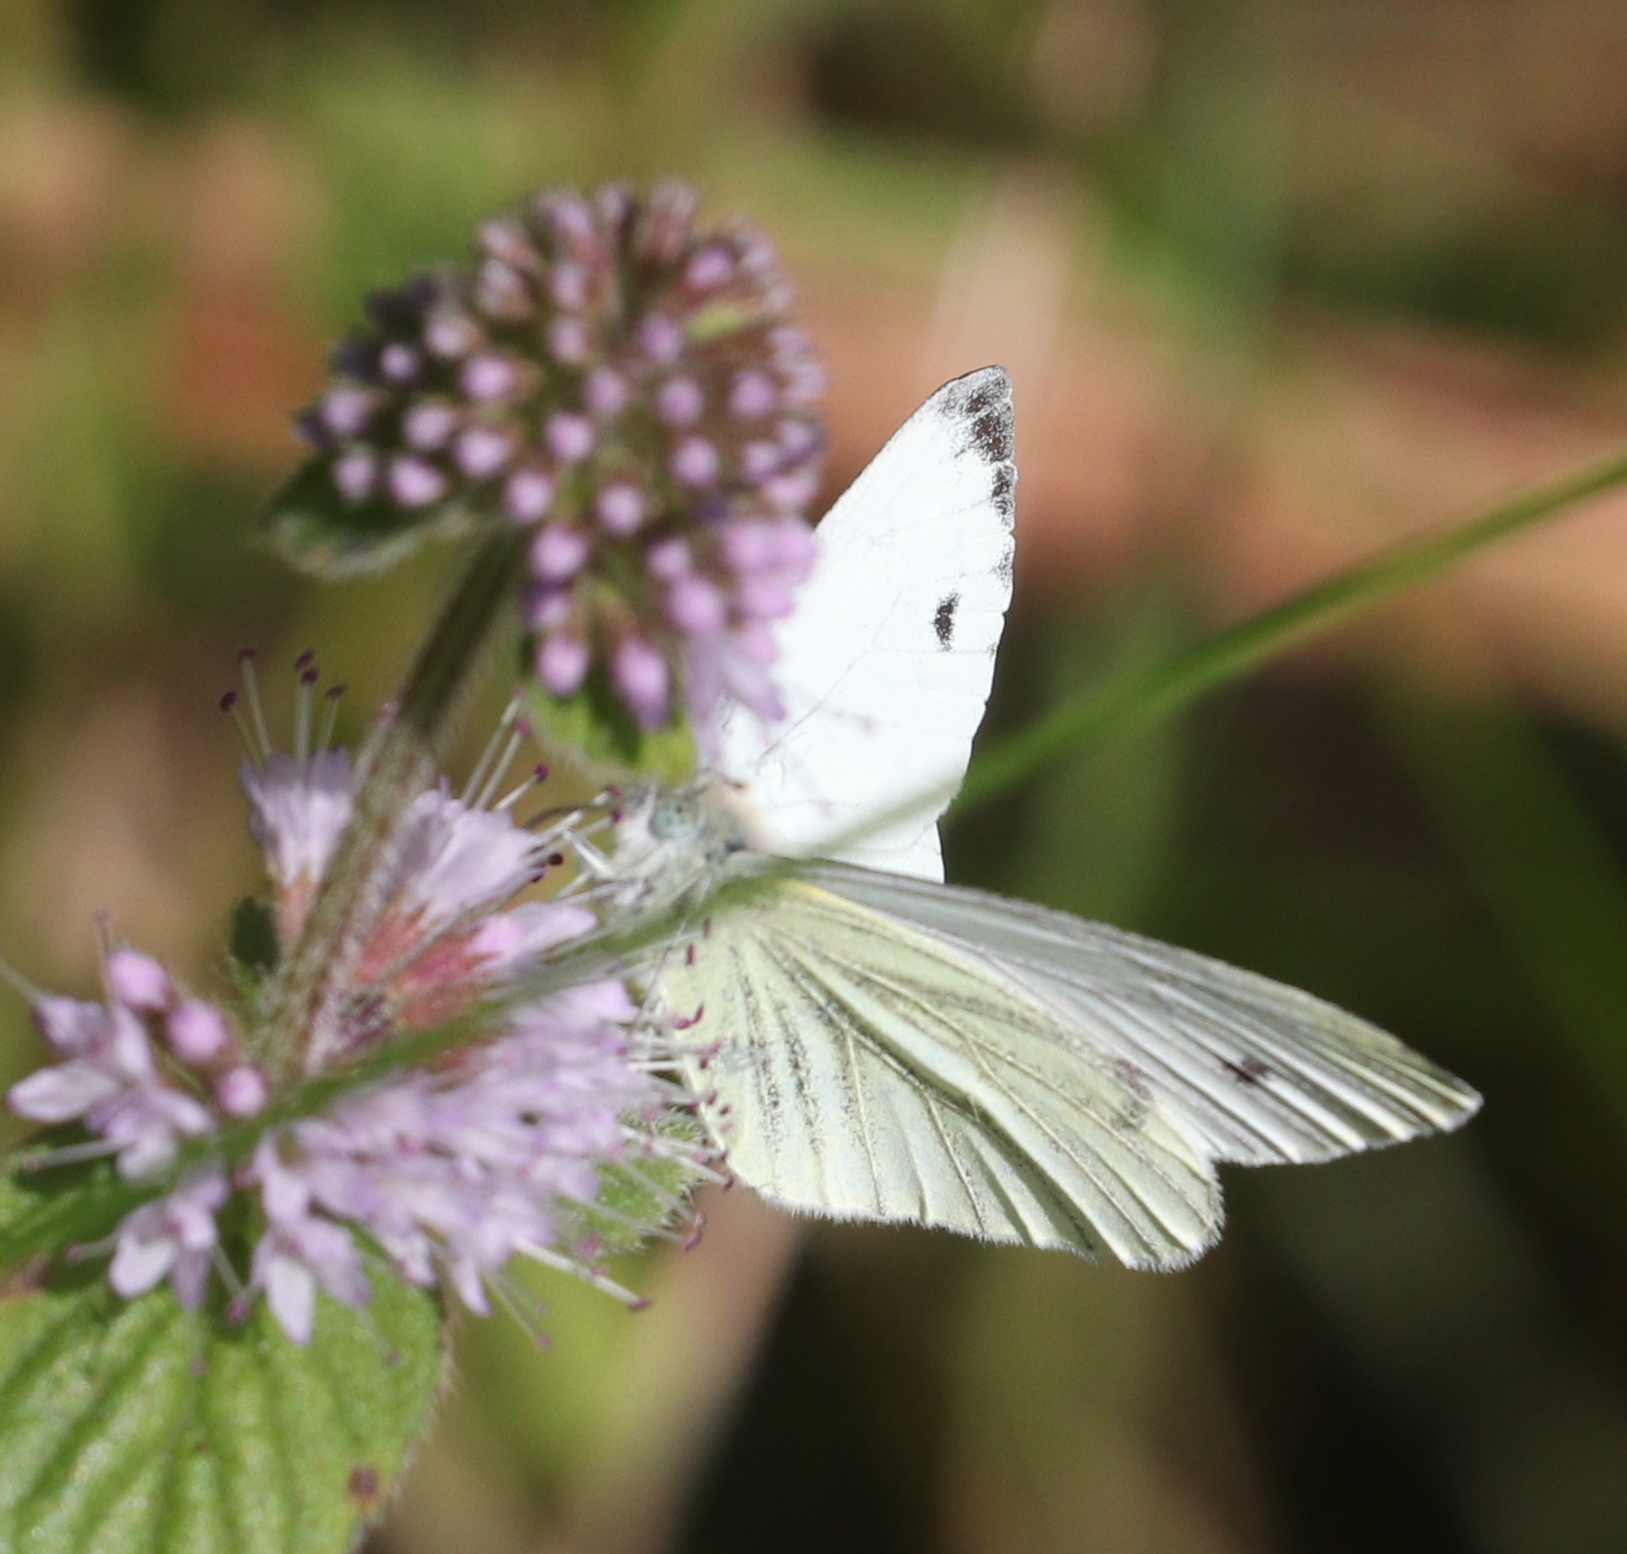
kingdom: Animalia
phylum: Arthropoda
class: Insecta
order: Lepidoptera
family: Pieridae
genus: Pieris
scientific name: Pieris napi
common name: Green-veined white
